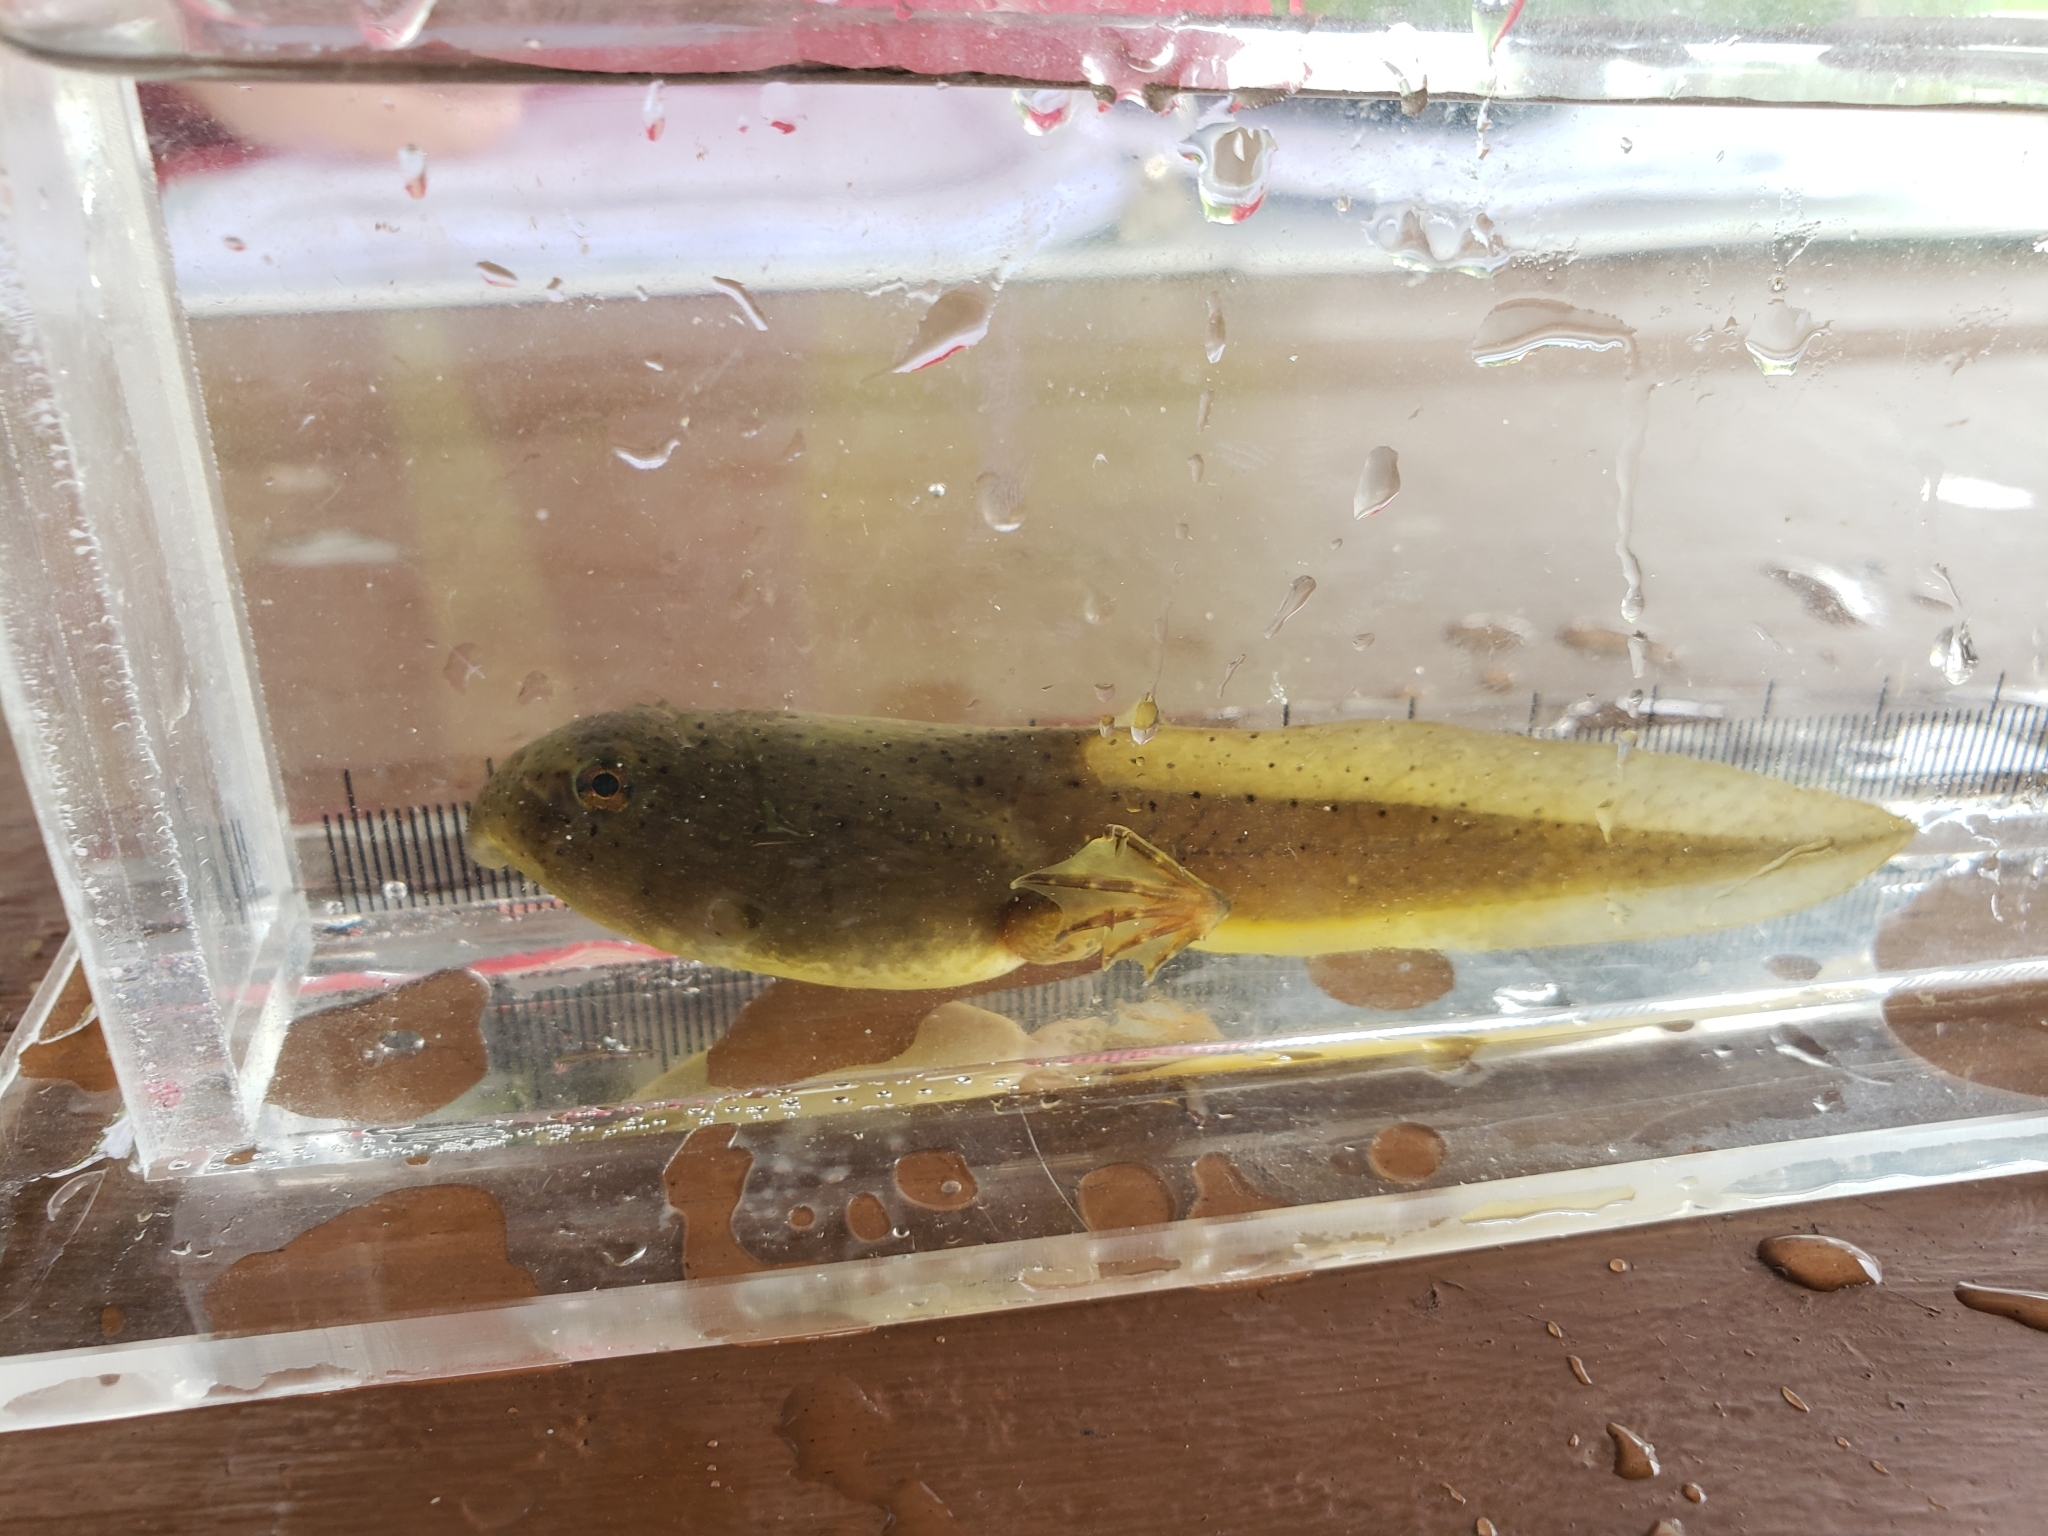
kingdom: Animalia
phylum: Chordata
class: Amphibia
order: Anura
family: Ranidae
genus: Lithobates
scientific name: Lithobates catesbeianus
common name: American bullfrog
